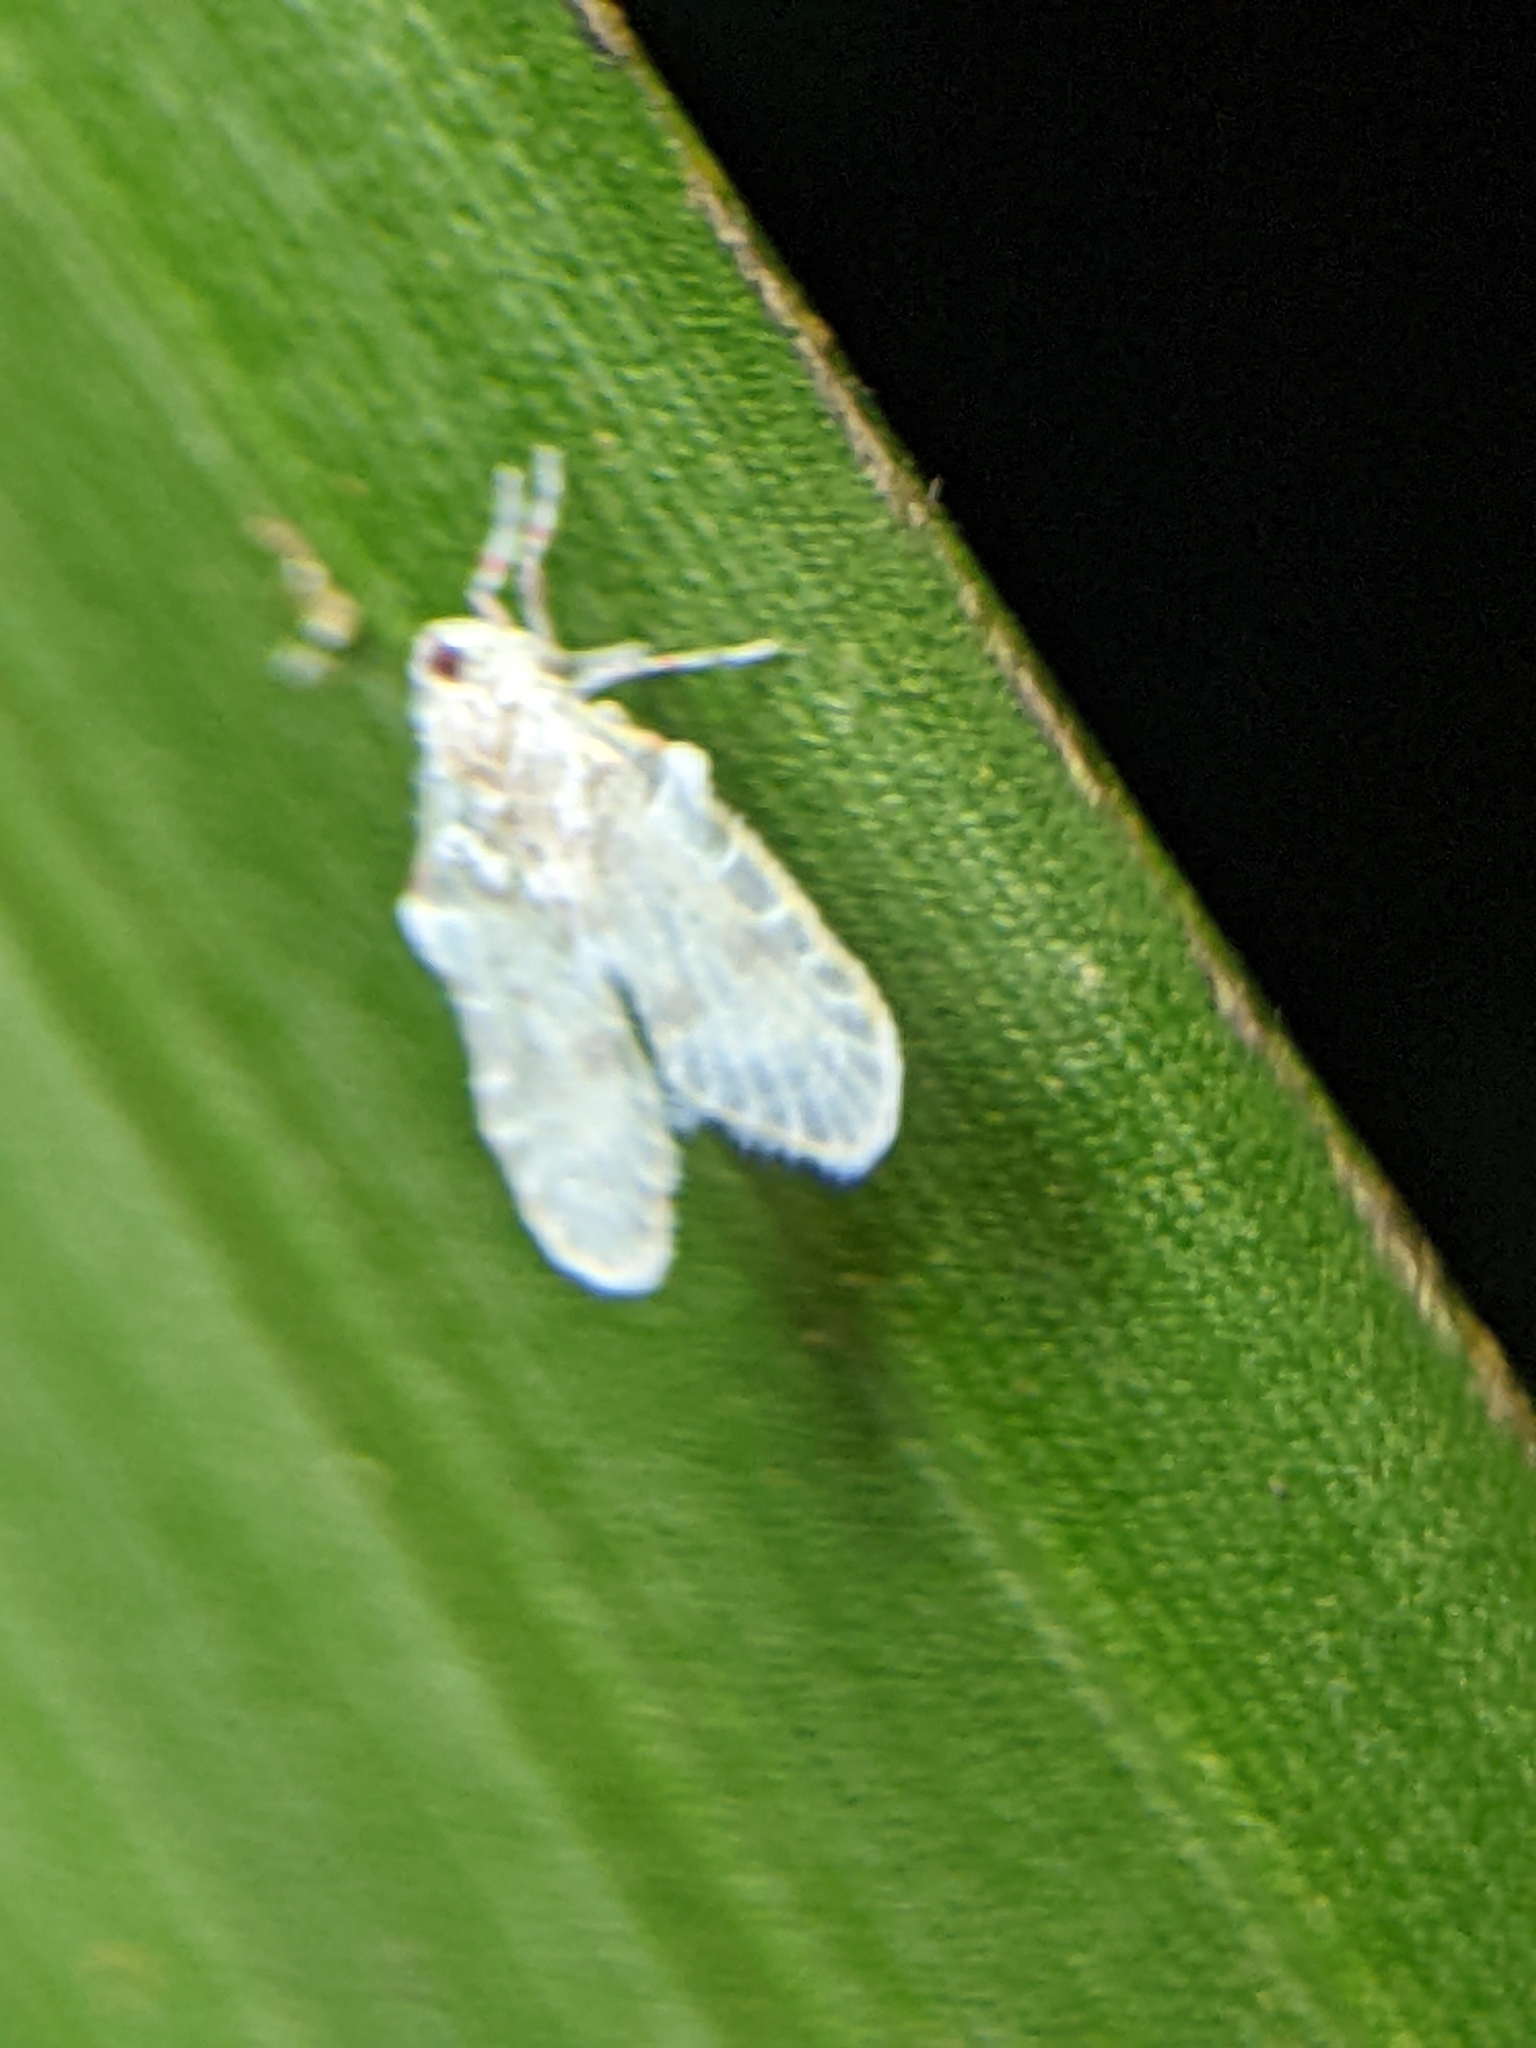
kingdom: Animalia
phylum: Arthropoda
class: Insecta
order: Hemiptera
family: Derbidae
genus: Alara
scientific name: Alara obscura
